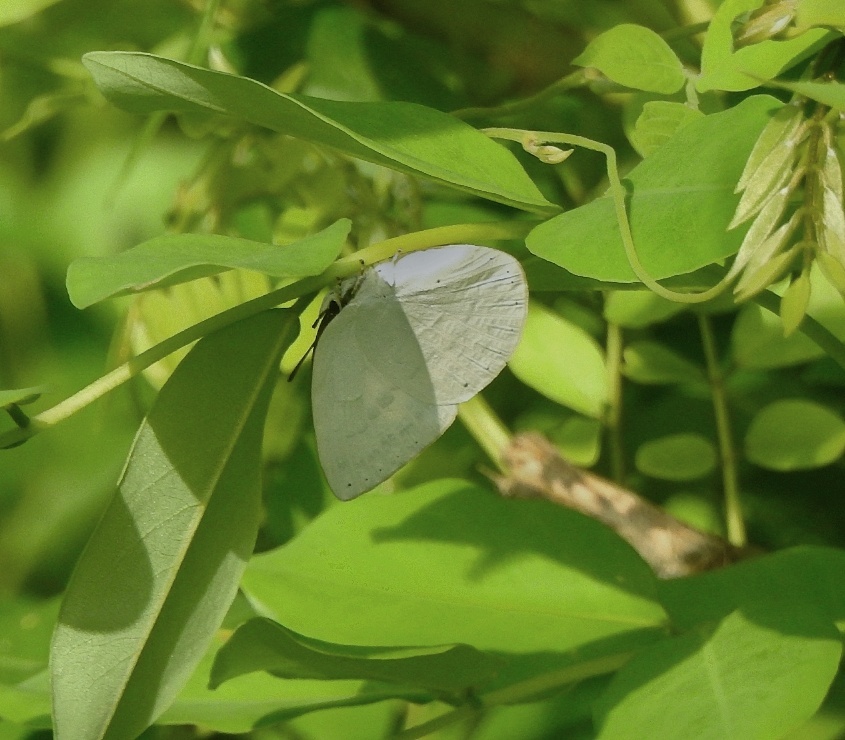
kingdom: Animalia
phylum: Arthropoda
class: Insecta
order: Lepidoptera
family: Lycaenidae
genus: Curetis
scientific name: Curetis thetis
